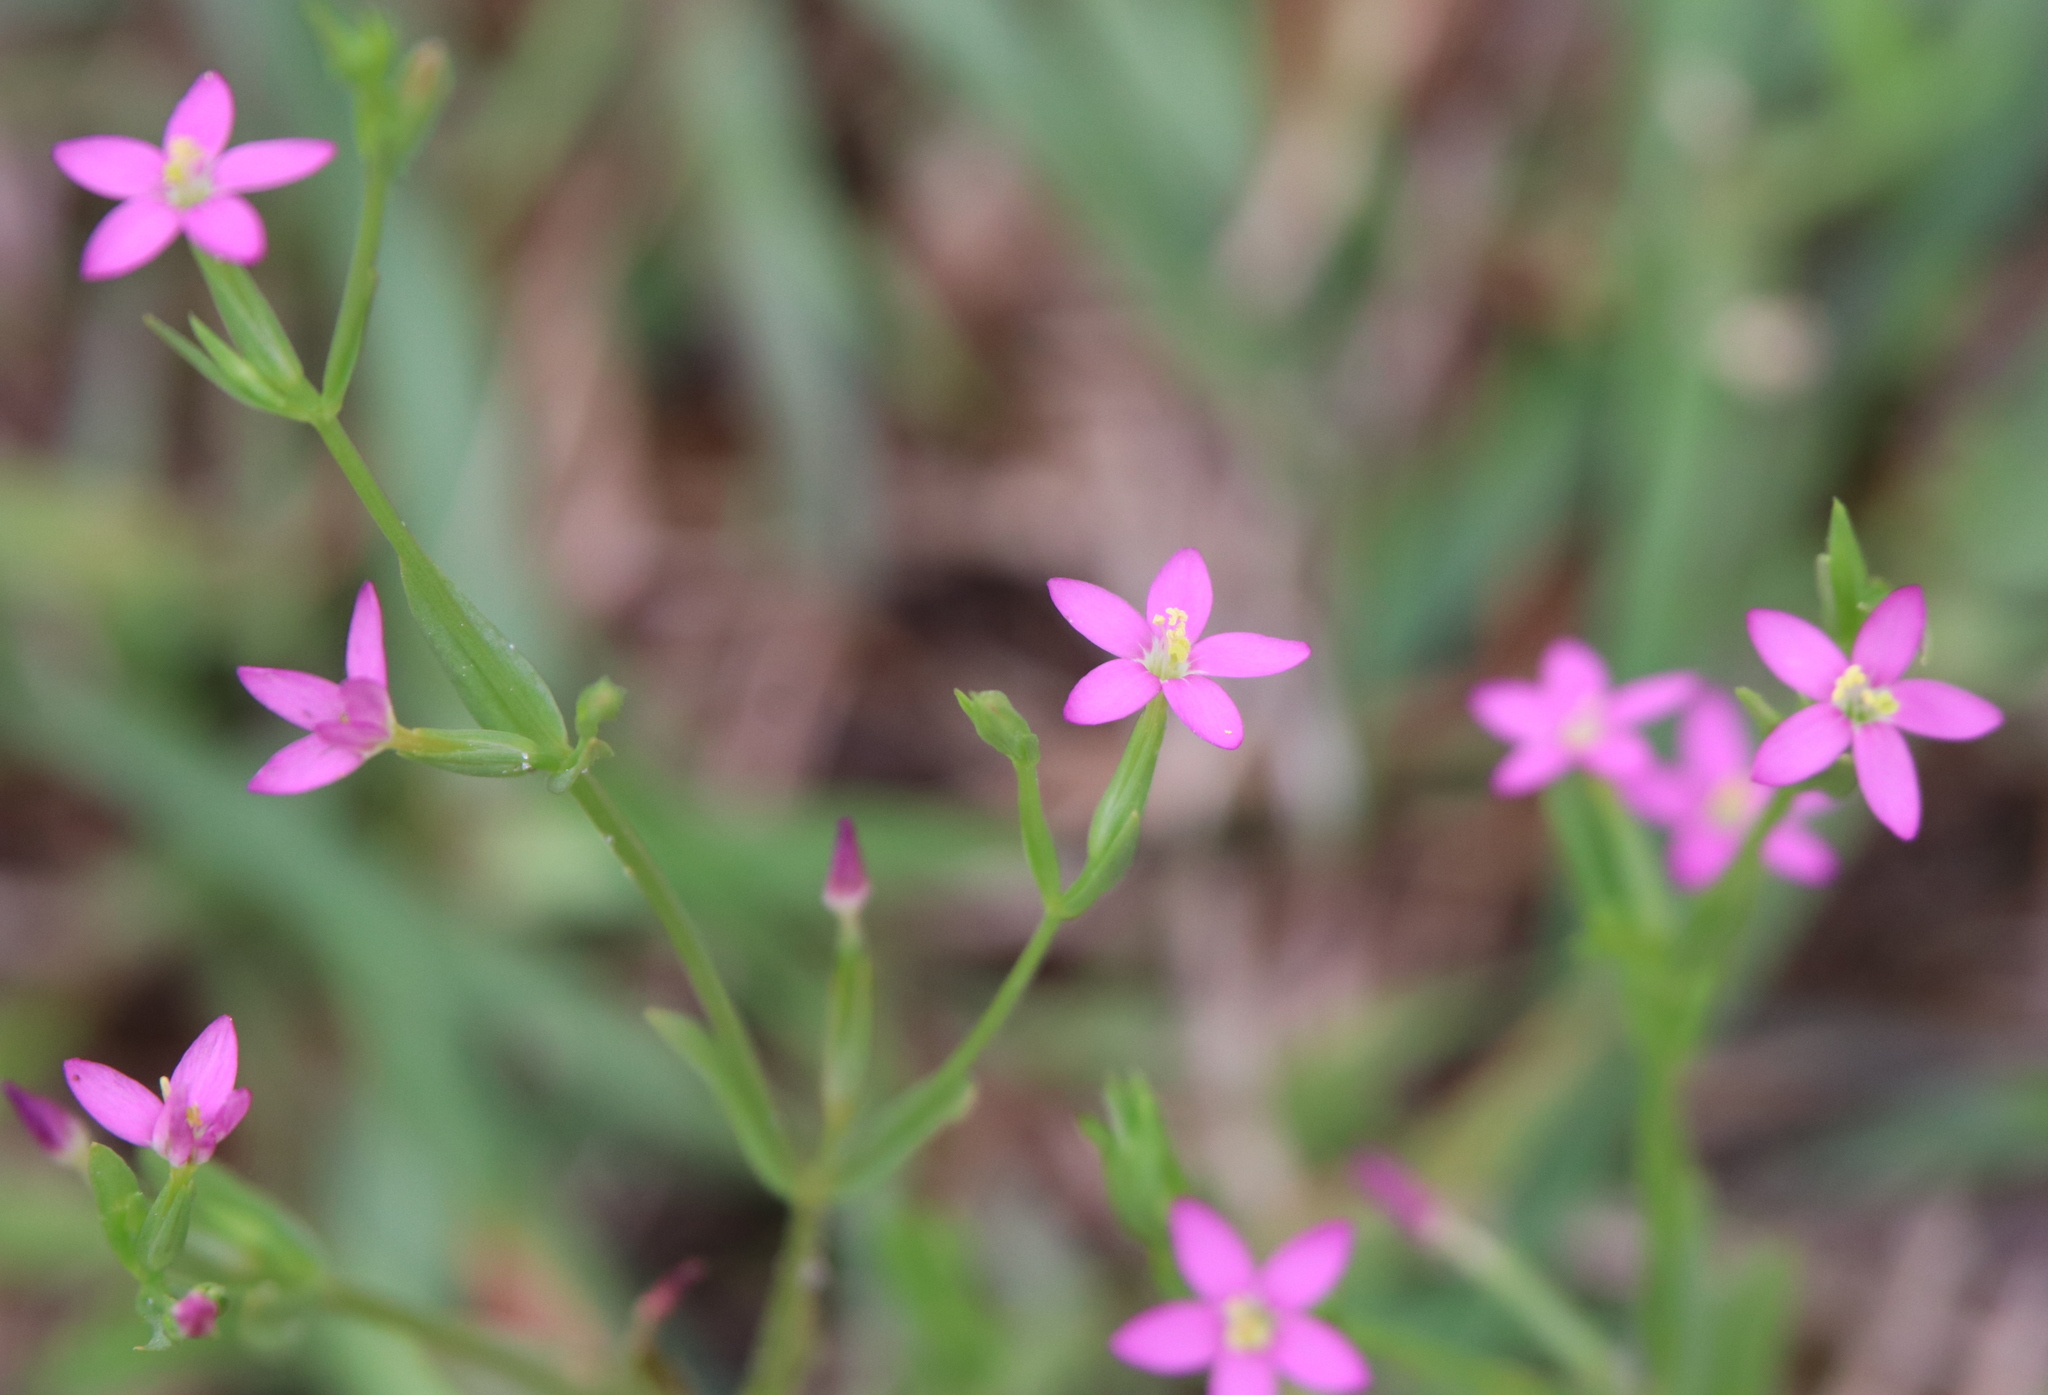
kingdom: Plantae
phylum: Tracheophyta
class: Magnoliopsida
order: Gentianales
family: Gentianaceae
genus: Centaurium
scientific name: Centaurium pulchellum
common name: Lesser centaury
